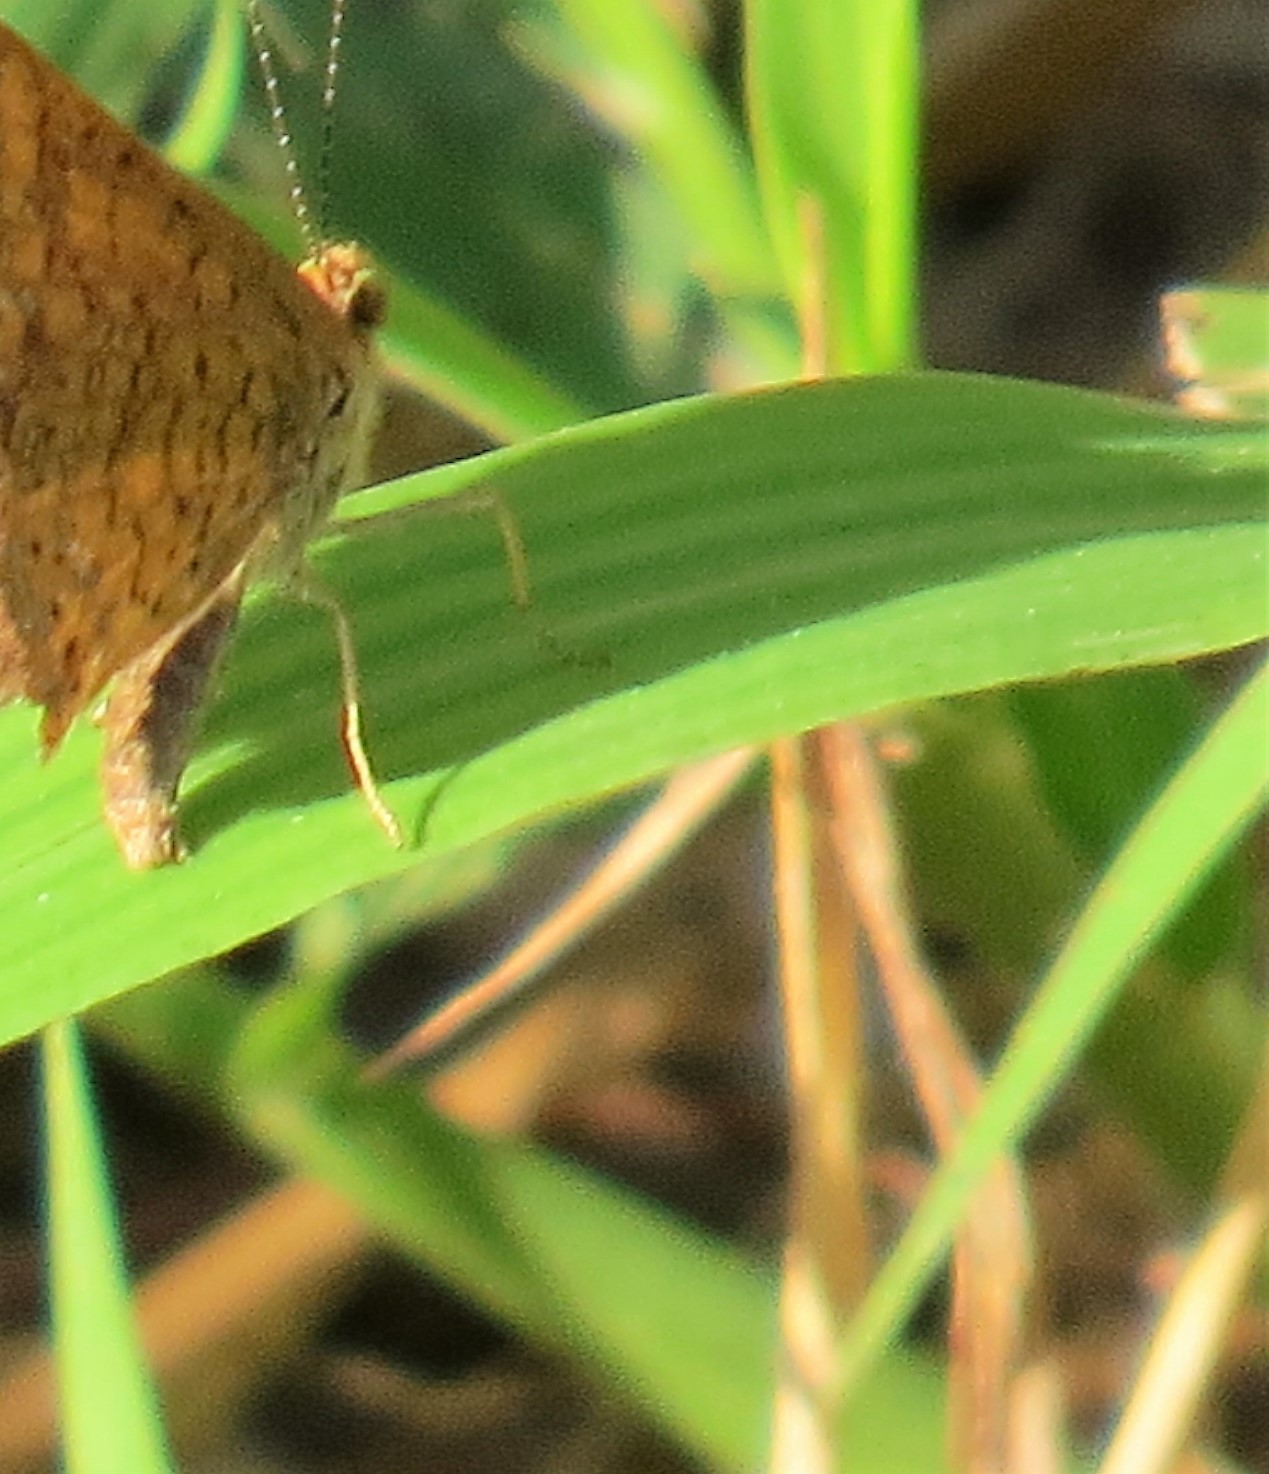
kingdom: Animalia
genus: Calephelis
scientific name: Calephelis borealis
